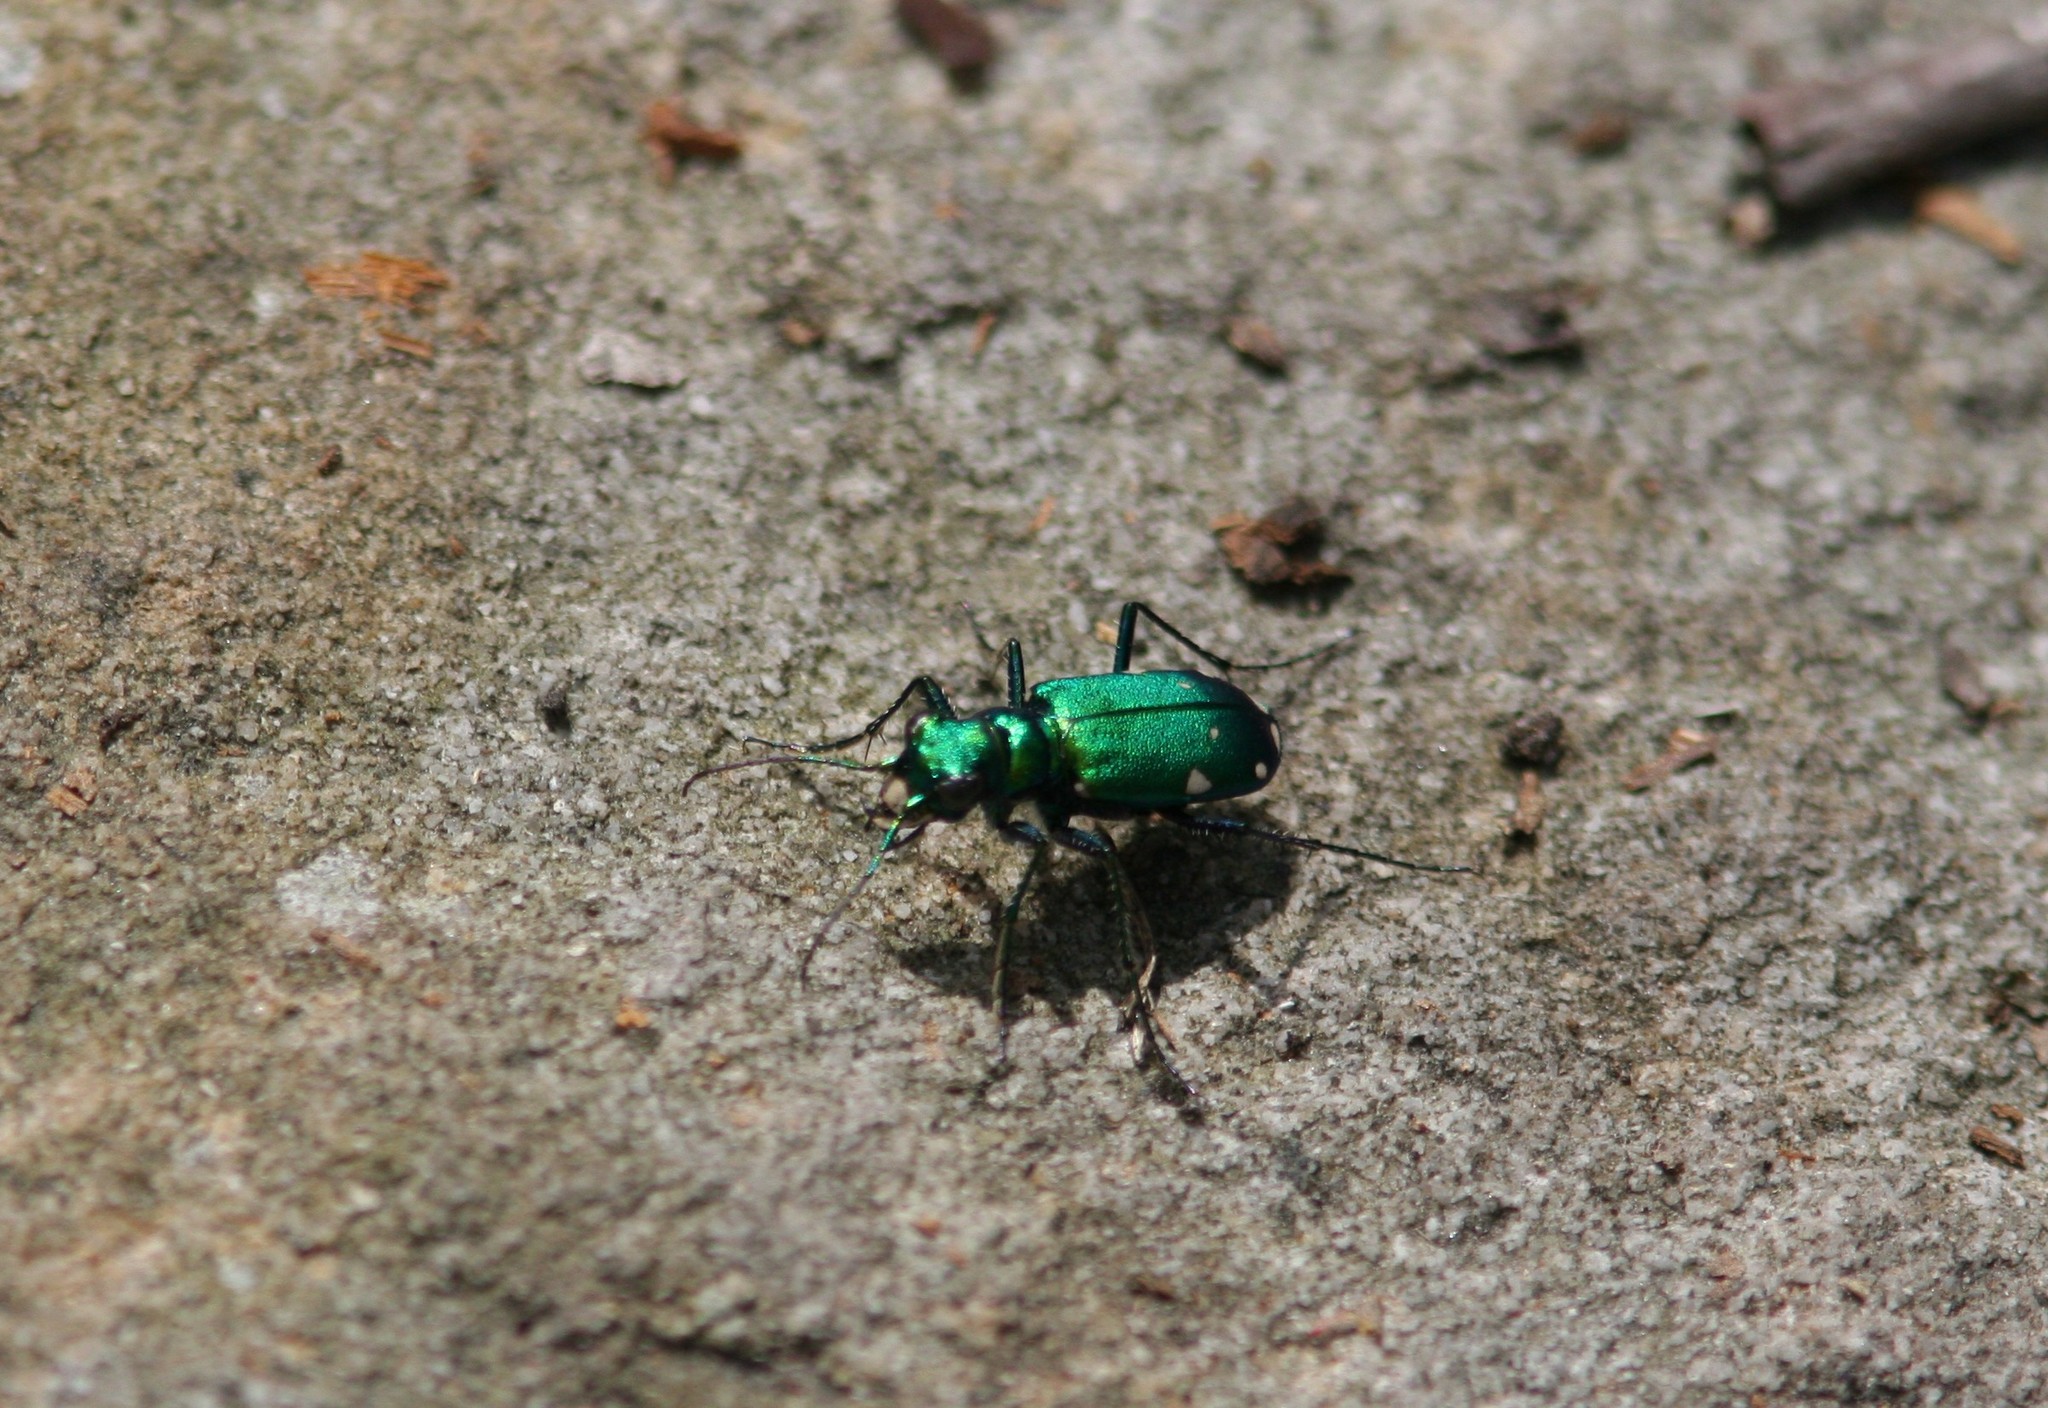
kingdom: Animalia
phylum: Arthropoda
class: Insecta
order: Coleoptera
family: Carabidae
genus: Cicindela
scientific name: Cicindela sexguttata
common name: Six-spotted tiger beetle
